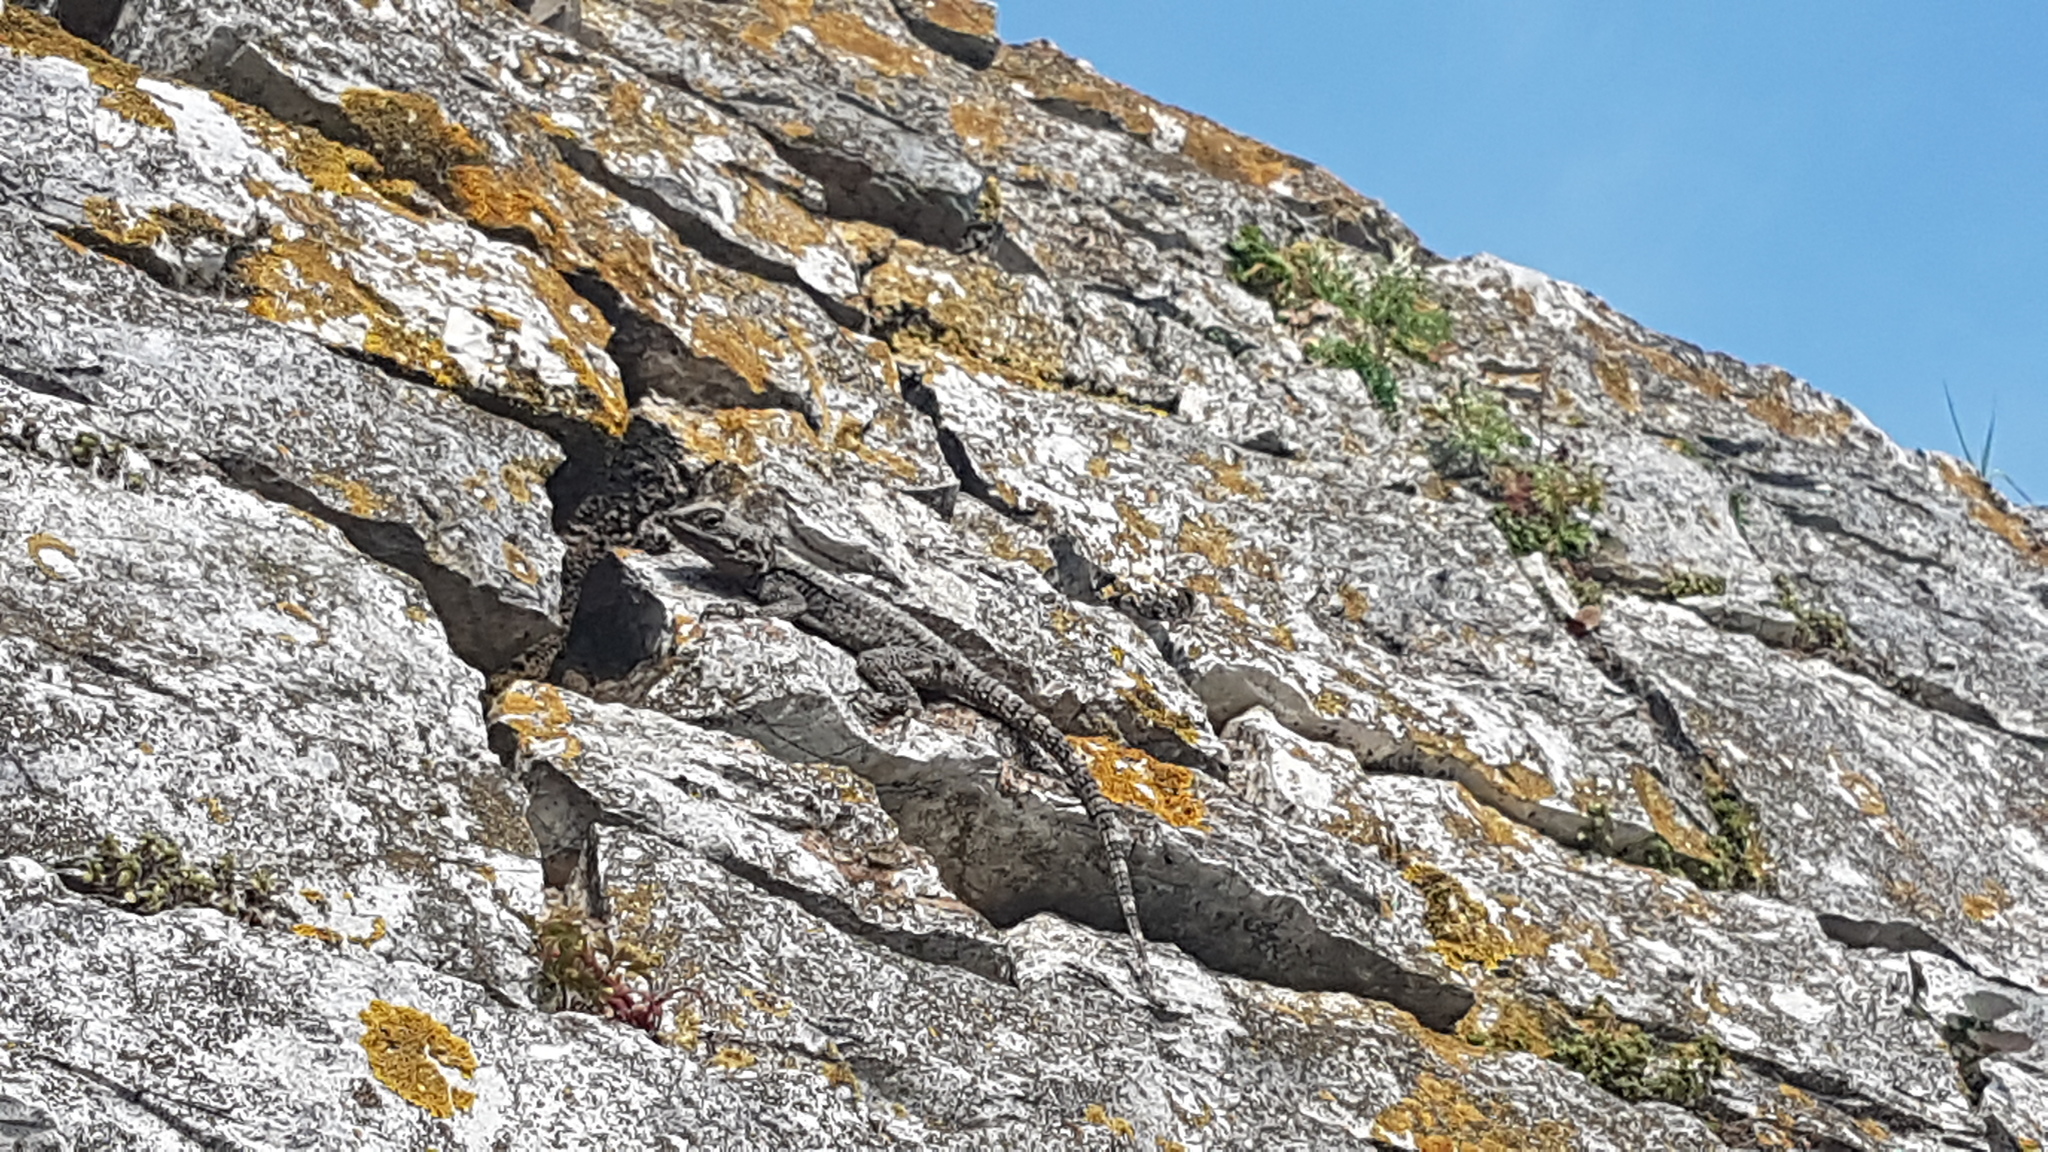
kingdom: Animalia
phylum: Chordata
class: Squamata
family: Agamidae
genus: Stellagama
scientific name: Stellagama stellio
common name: Starred agama
